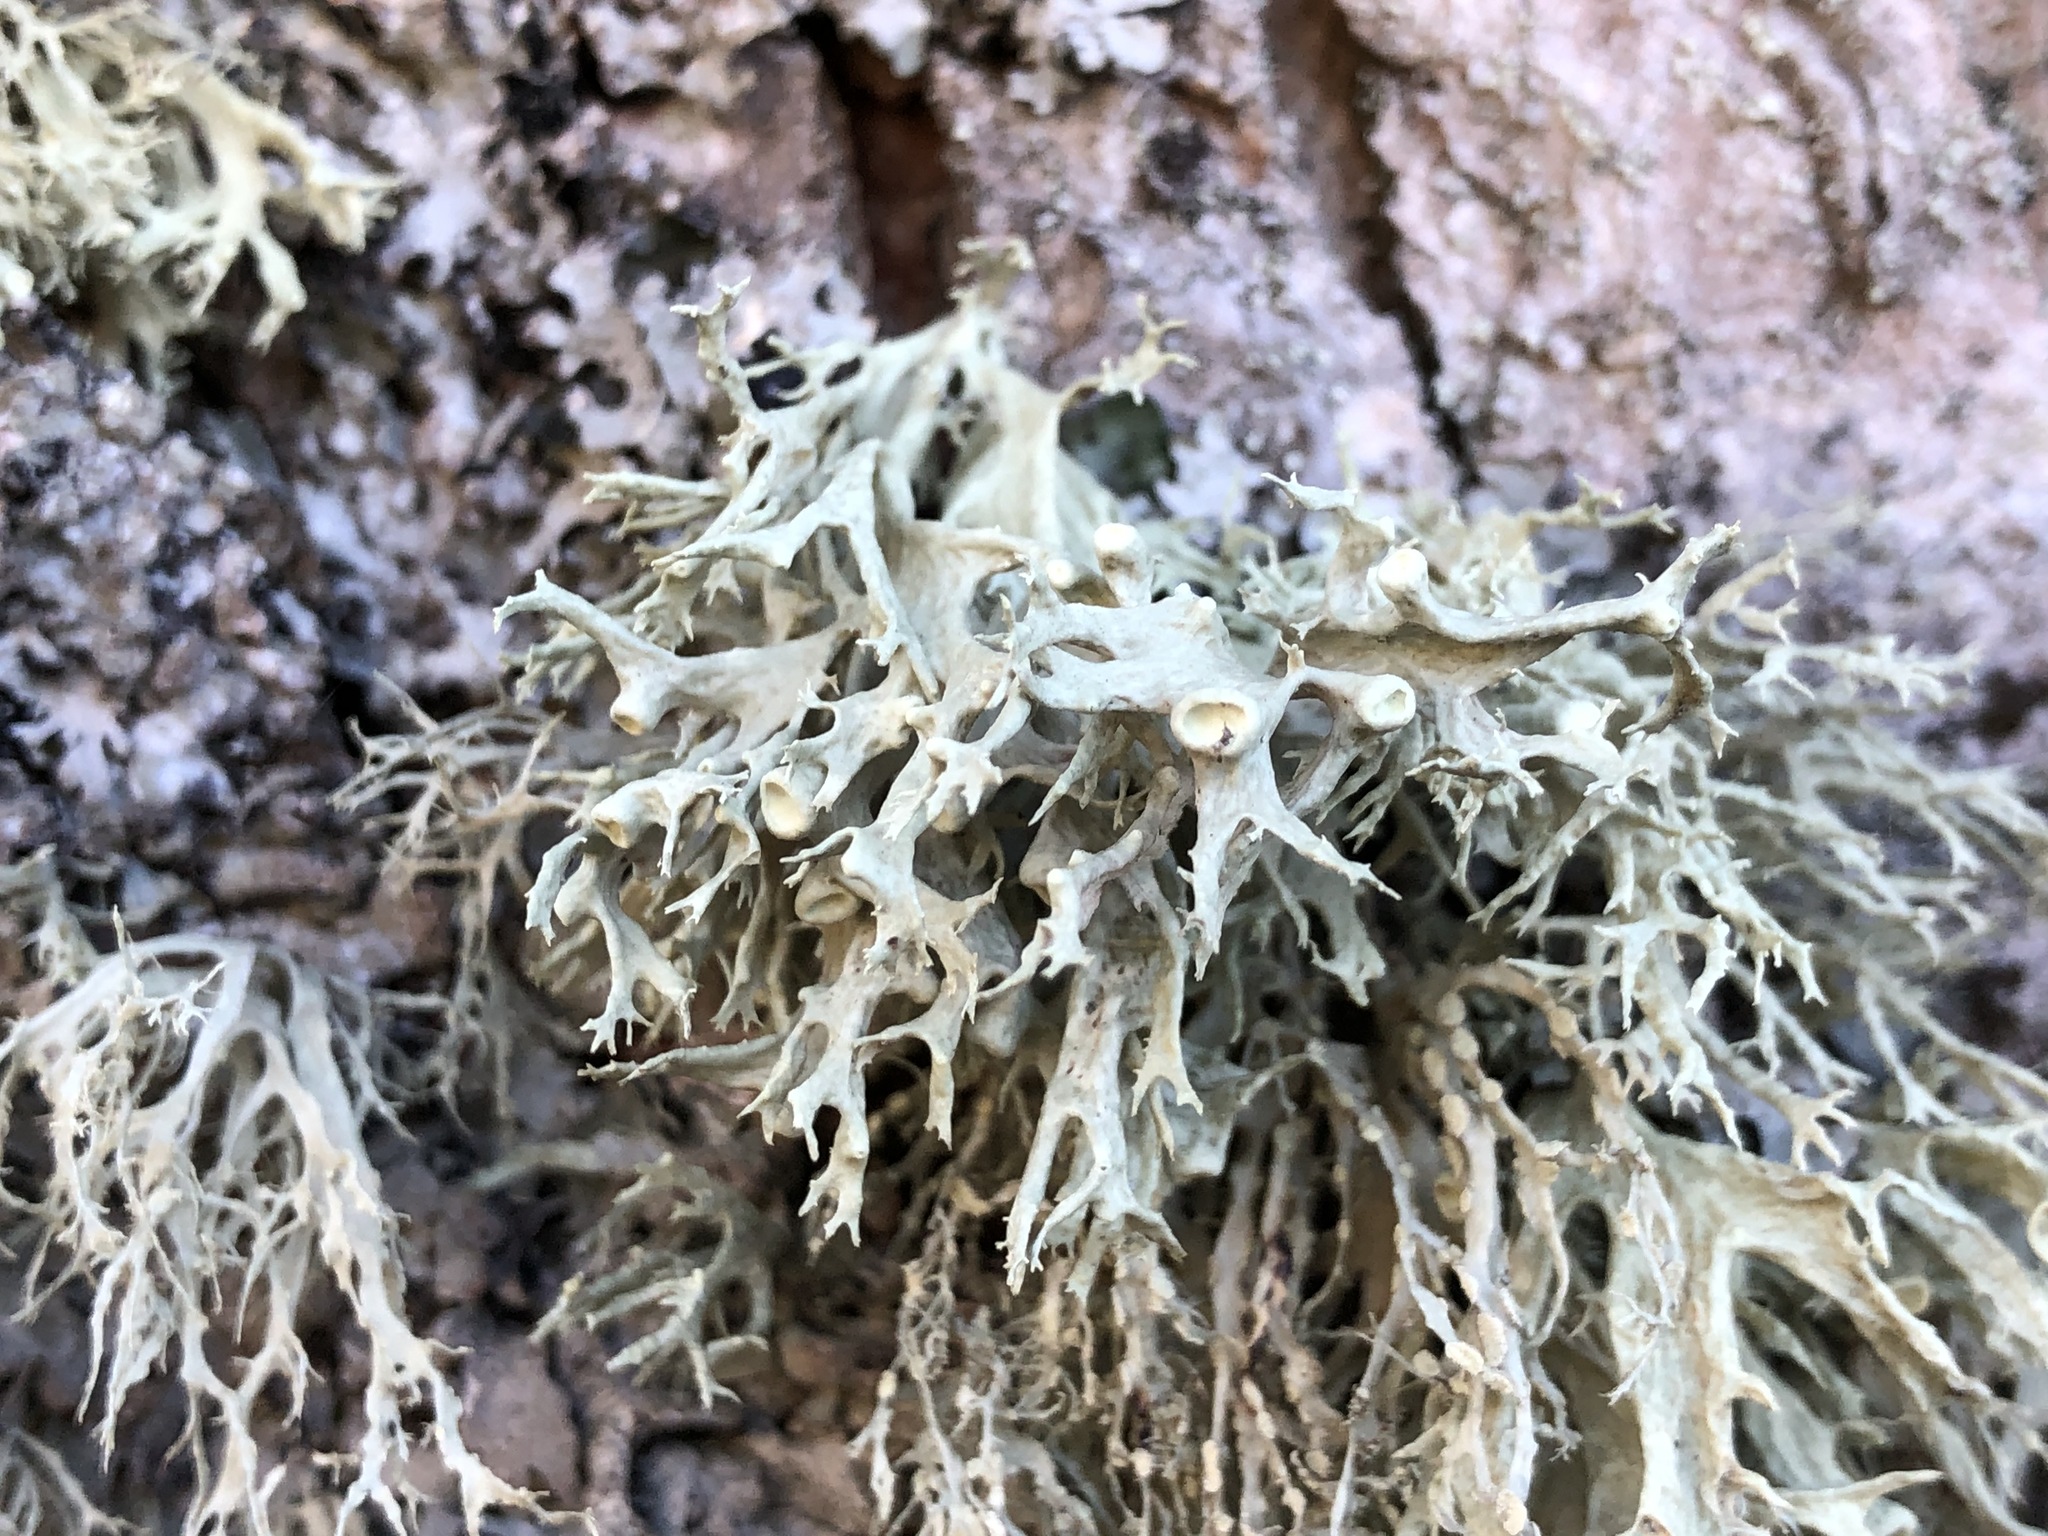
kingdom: Fungi
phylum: Ascomycota
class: Lecanoromycetes
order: Lecanorales
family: Ramalinaceae
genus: Ramalina
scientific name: Ramalina fastigiata
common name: Dotted ribbon lichen
